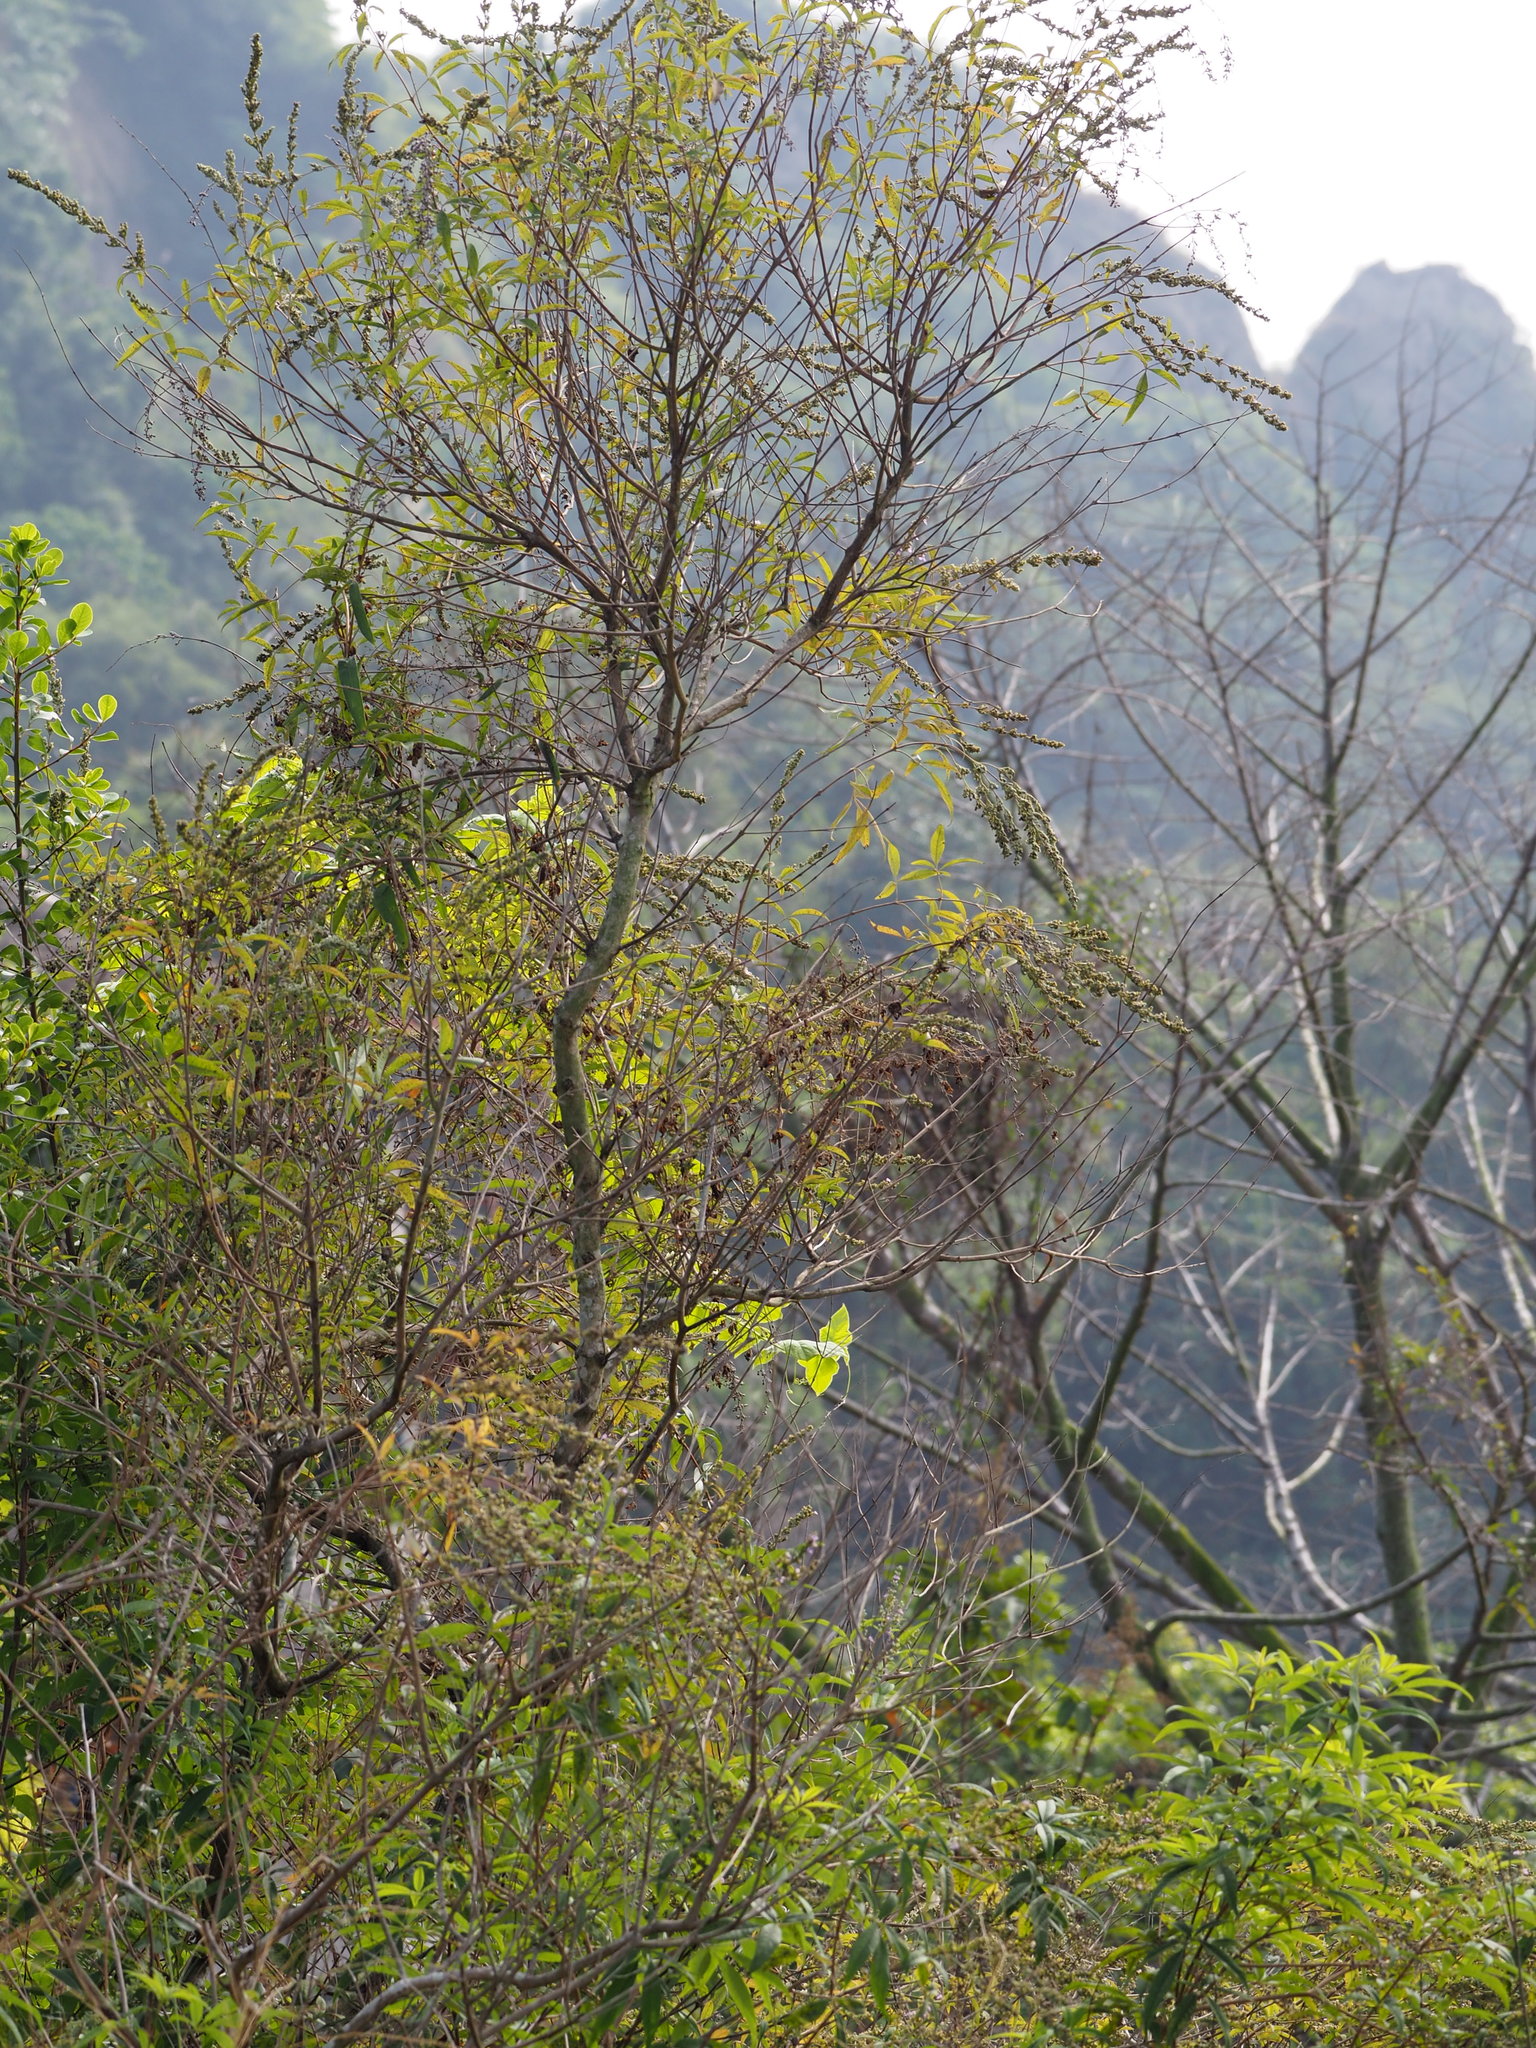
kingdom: Plantae
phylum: Tracheophyta
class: Magnoliopsida
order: Lamiales
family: Lamiaceae
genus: Vitex
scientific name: Vitex negundo
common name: Chinese chastetree
